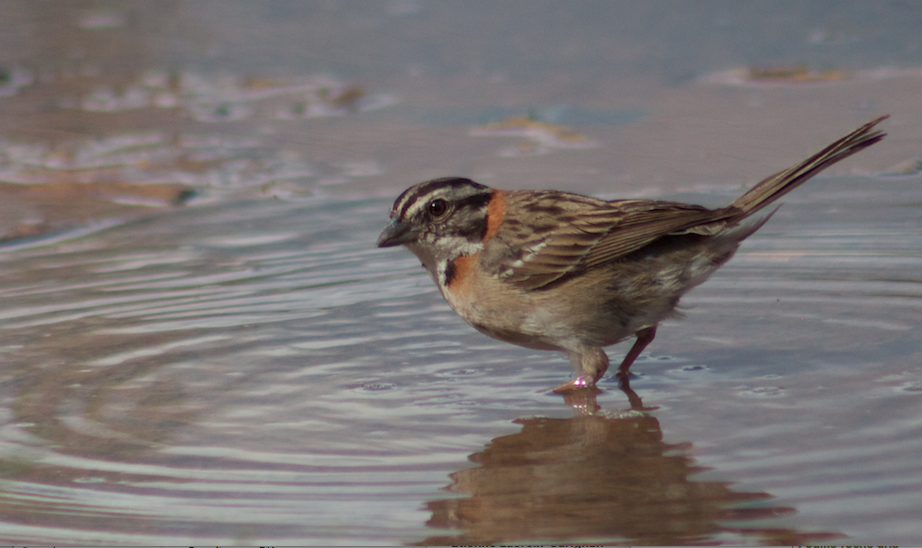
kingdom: Animalia
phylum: Chordata
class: Aves
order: Passeriformes
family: Passerellidae
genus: Zonotrichia
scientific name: Zonotrichia capensis
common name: Rufous-collared sparrow
